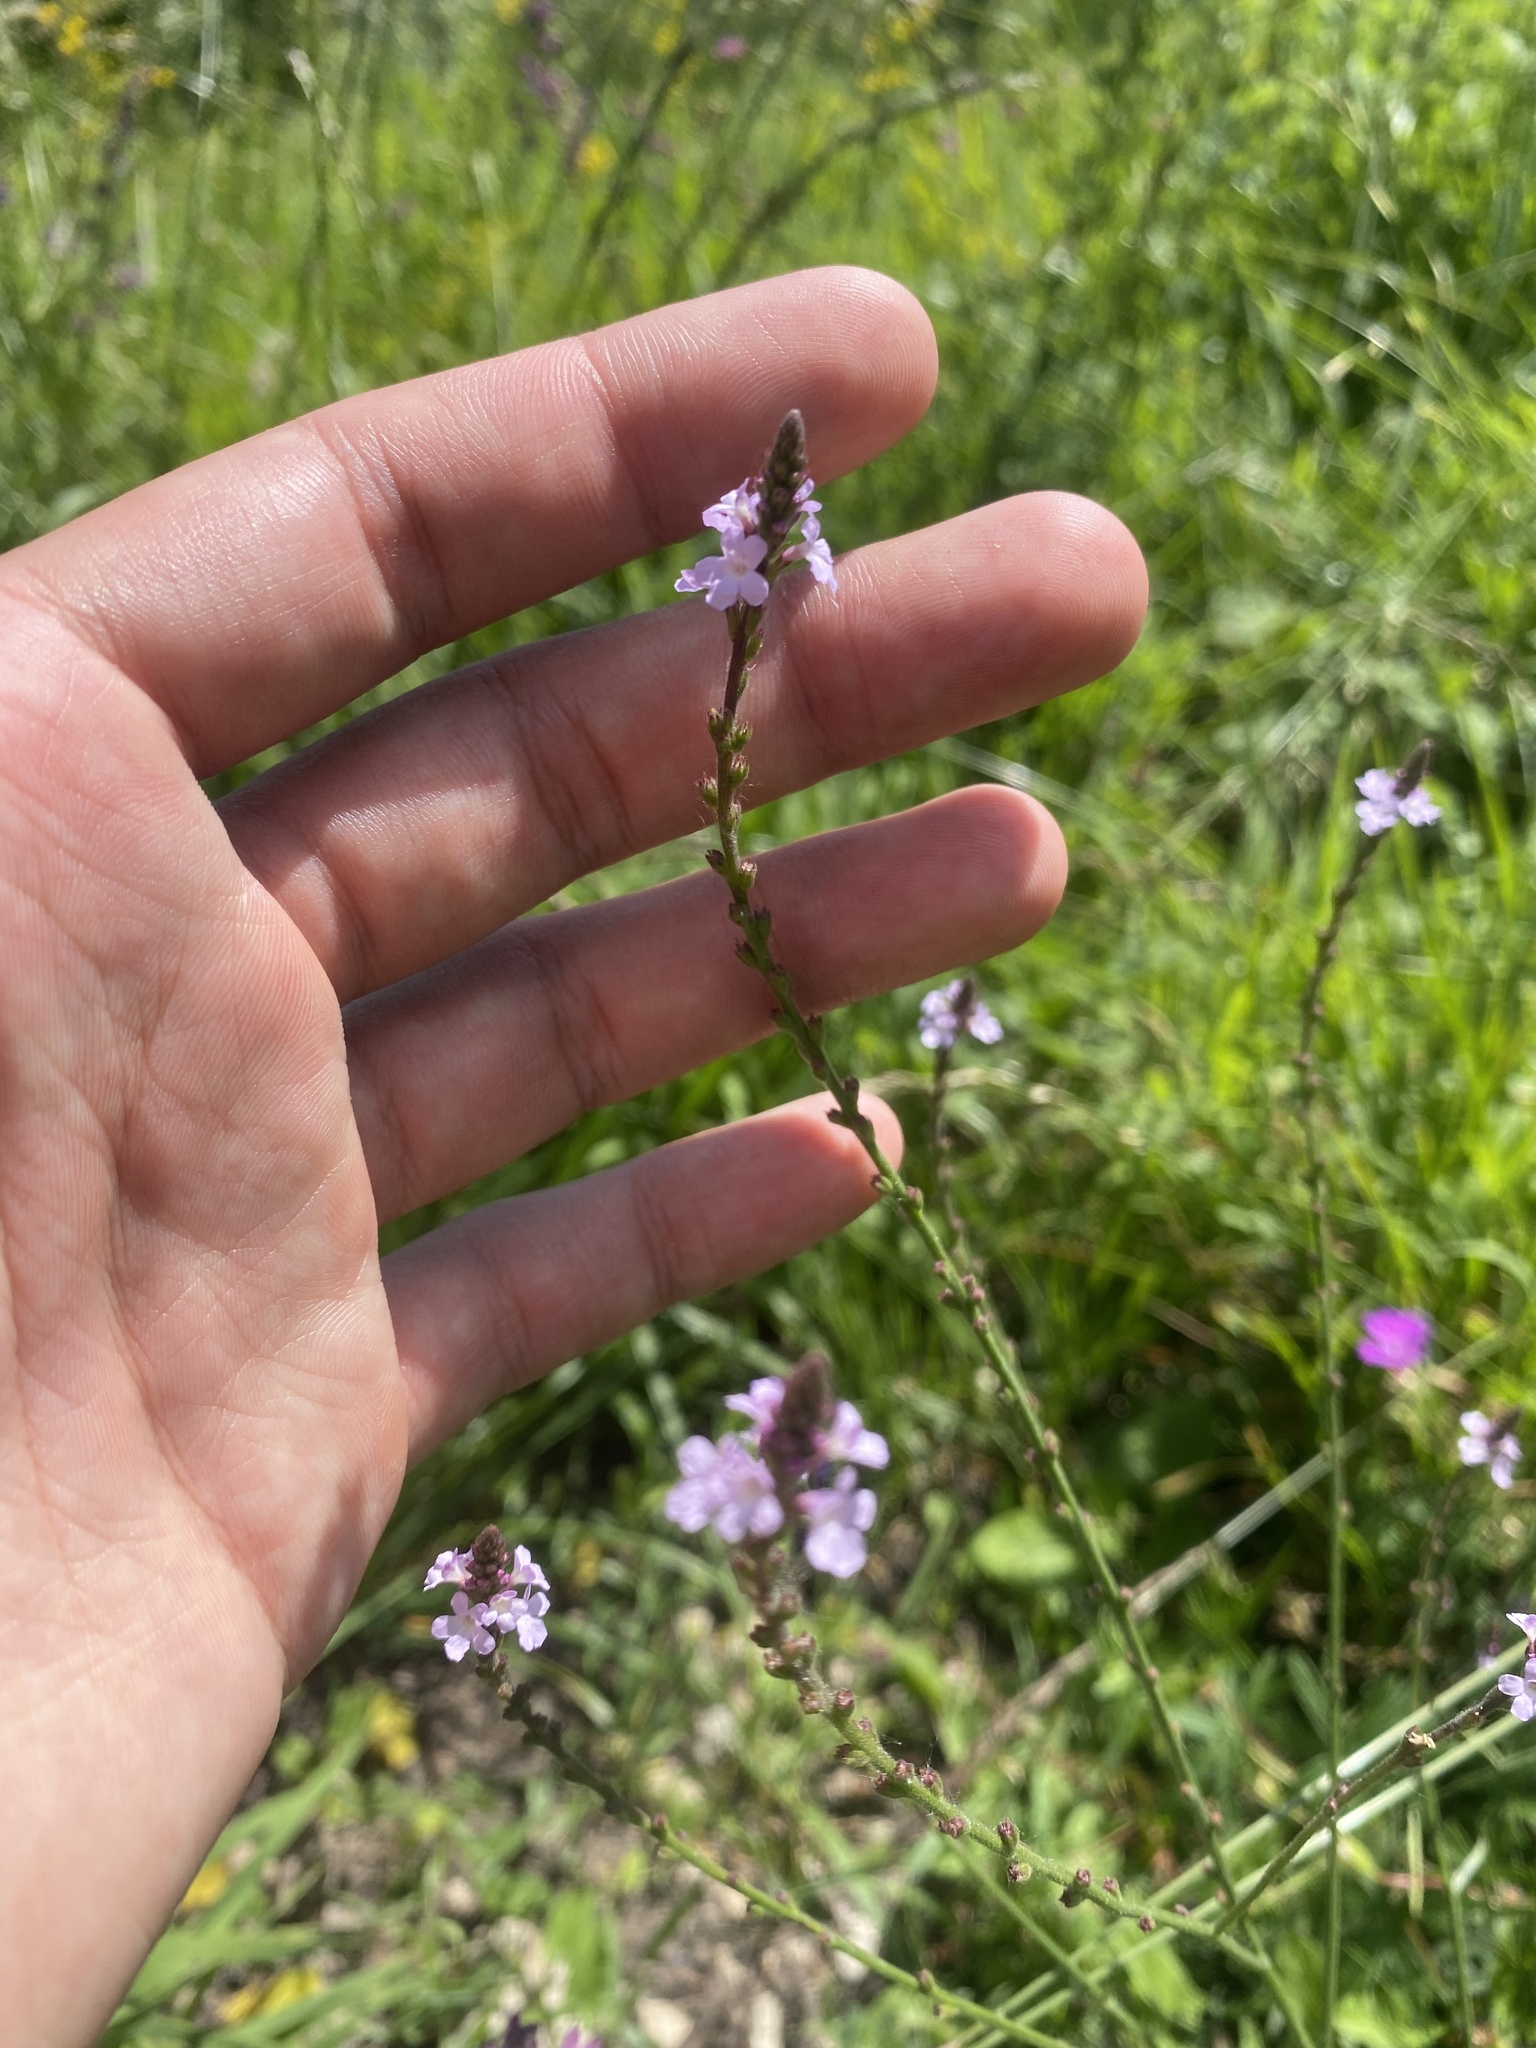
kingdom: Plantae
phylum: Tracheophyta
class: Magnoliopsida
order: Lamiales
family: Verbenaceae
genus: Verbena
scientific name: Verbena officinalis
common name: Vervain
